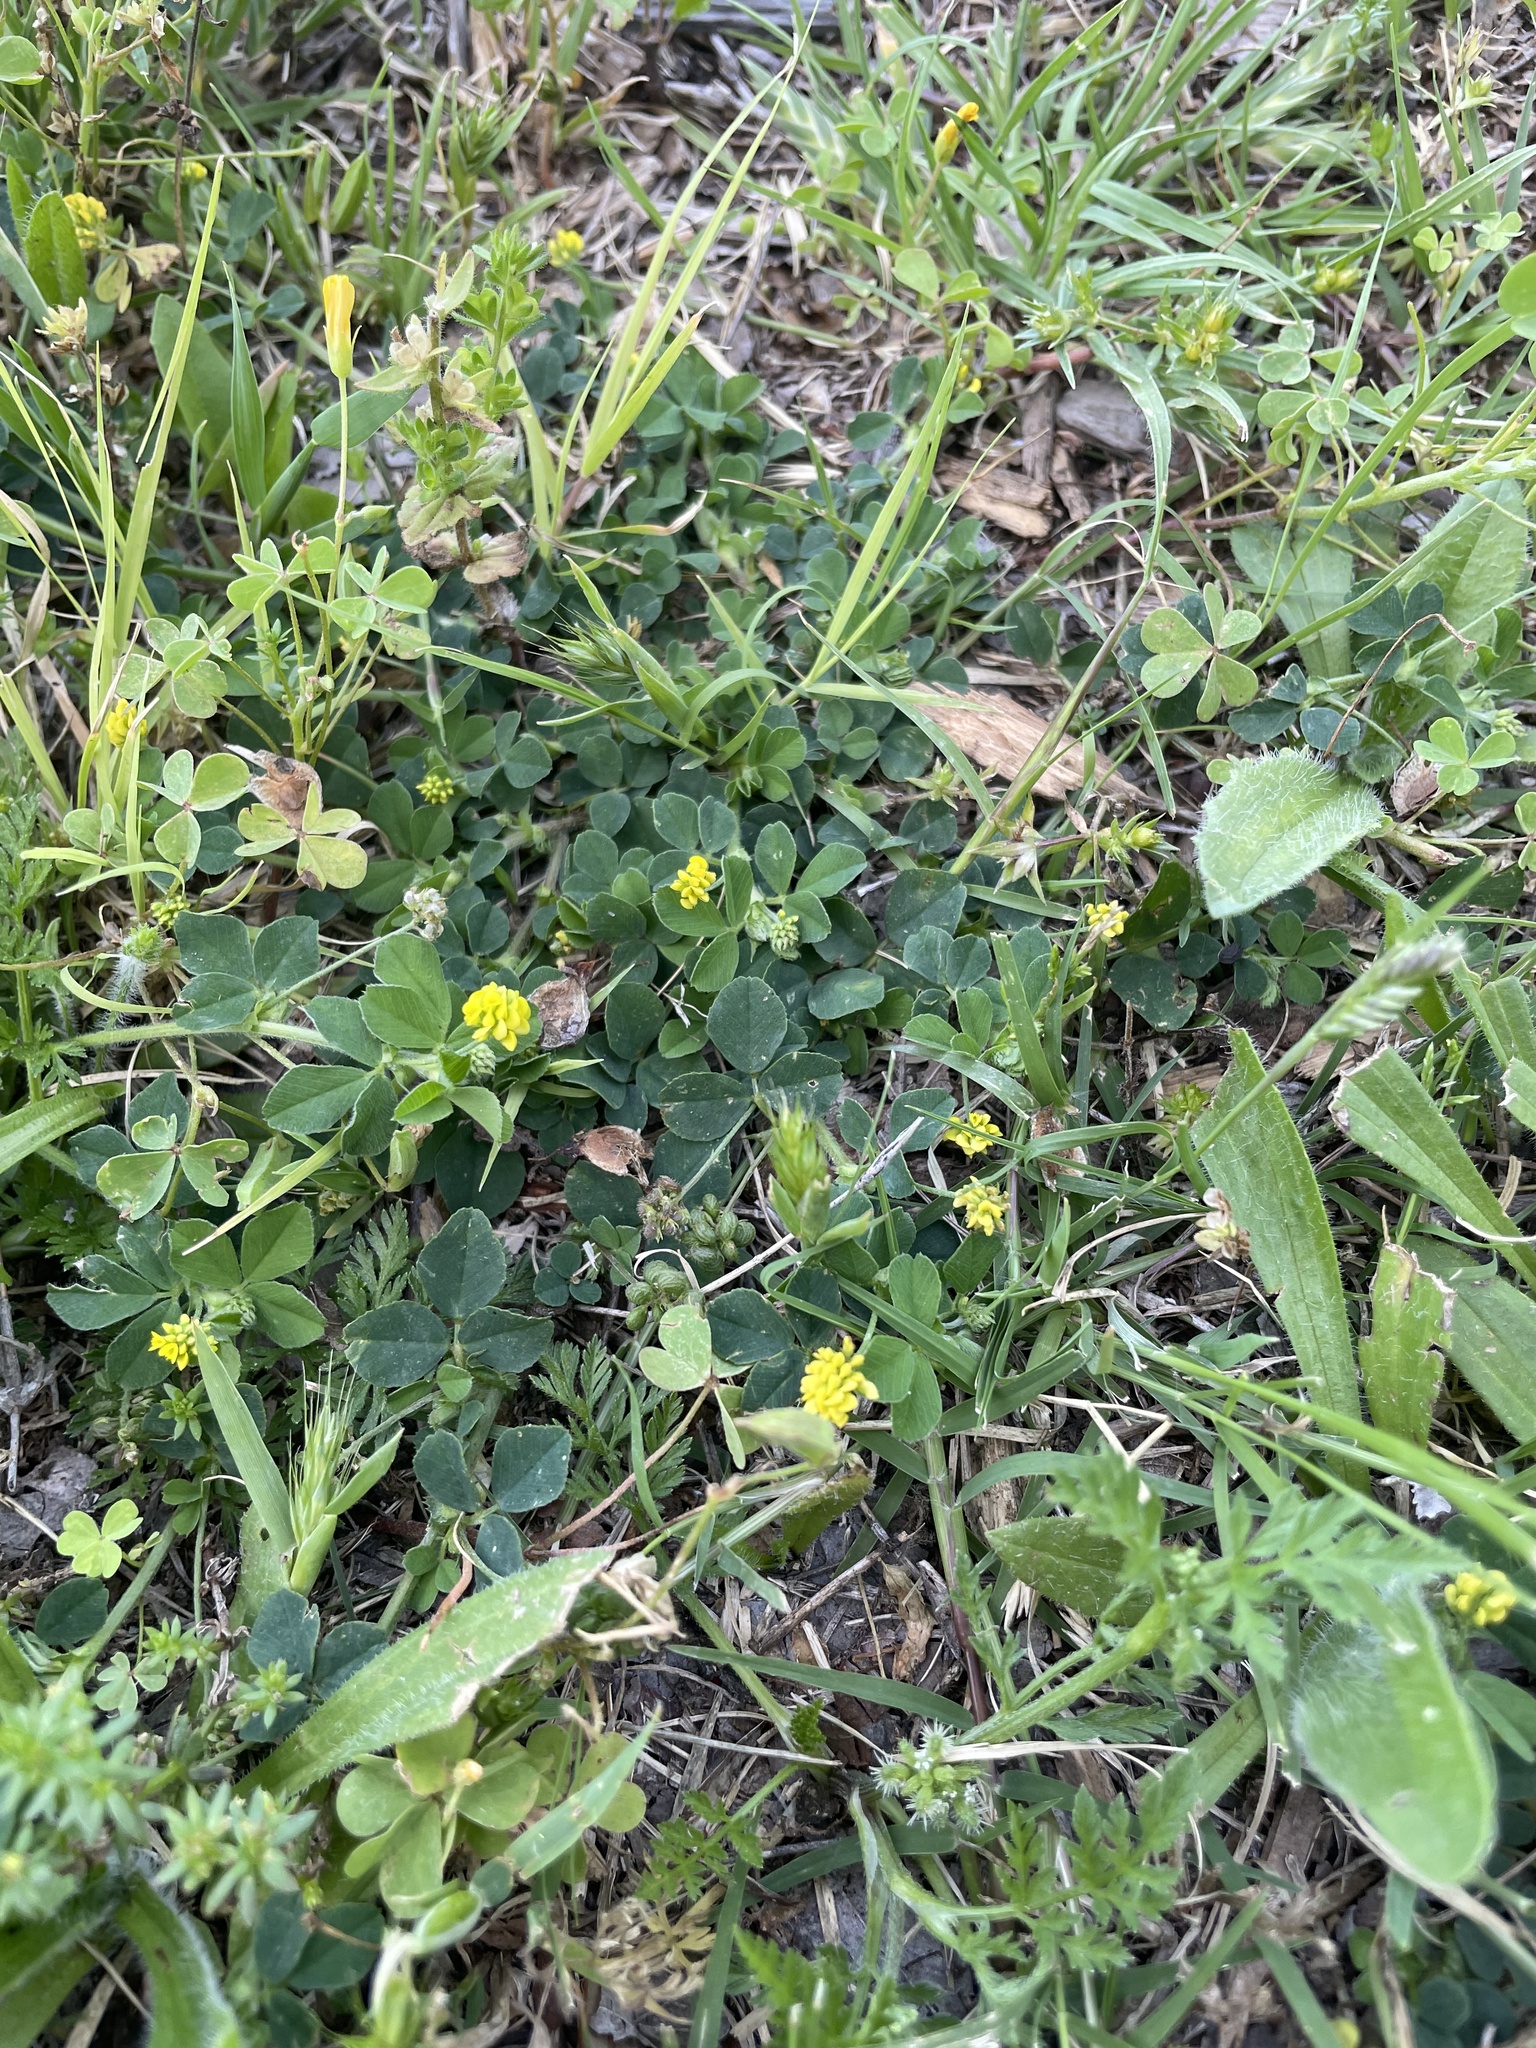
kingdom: Plantae
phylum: Tracheophyta
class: Magnoliopsida
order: Fabales
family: Fabaceae
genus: Medicago
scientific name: Medicago lupulina
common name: Black medick
